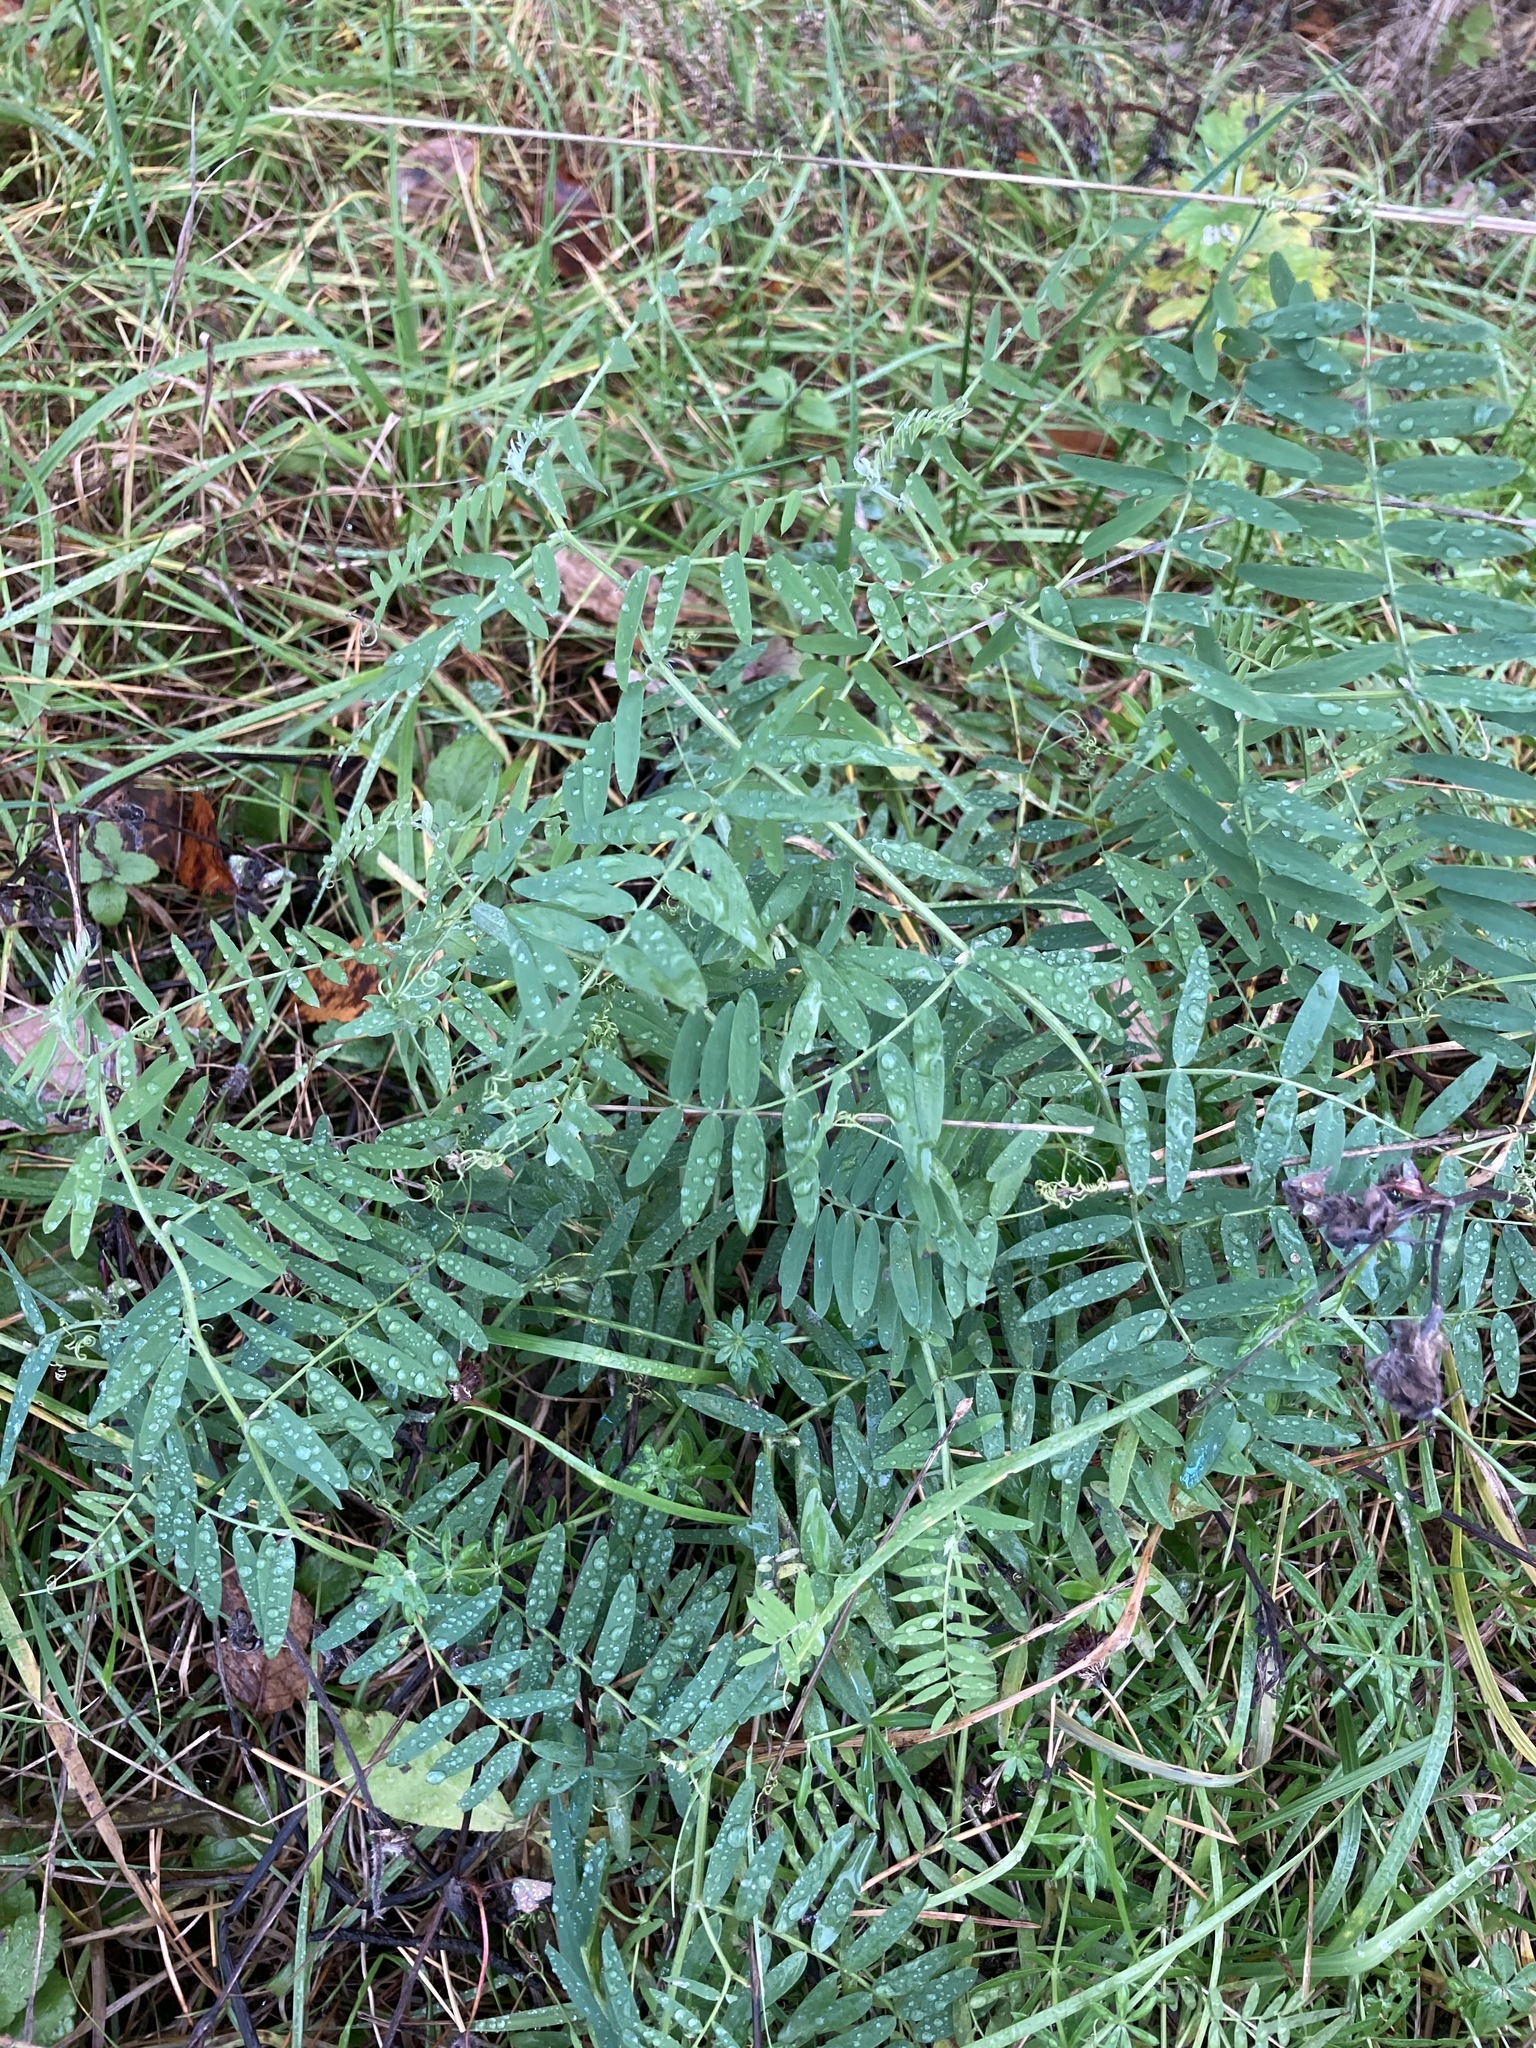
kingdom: Plantae
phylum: Tracheophyta
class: Magnoliopsida
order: Fabales
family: Fabaceae
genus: Vicia
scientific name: Vicia cracca
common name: Bird vetch
